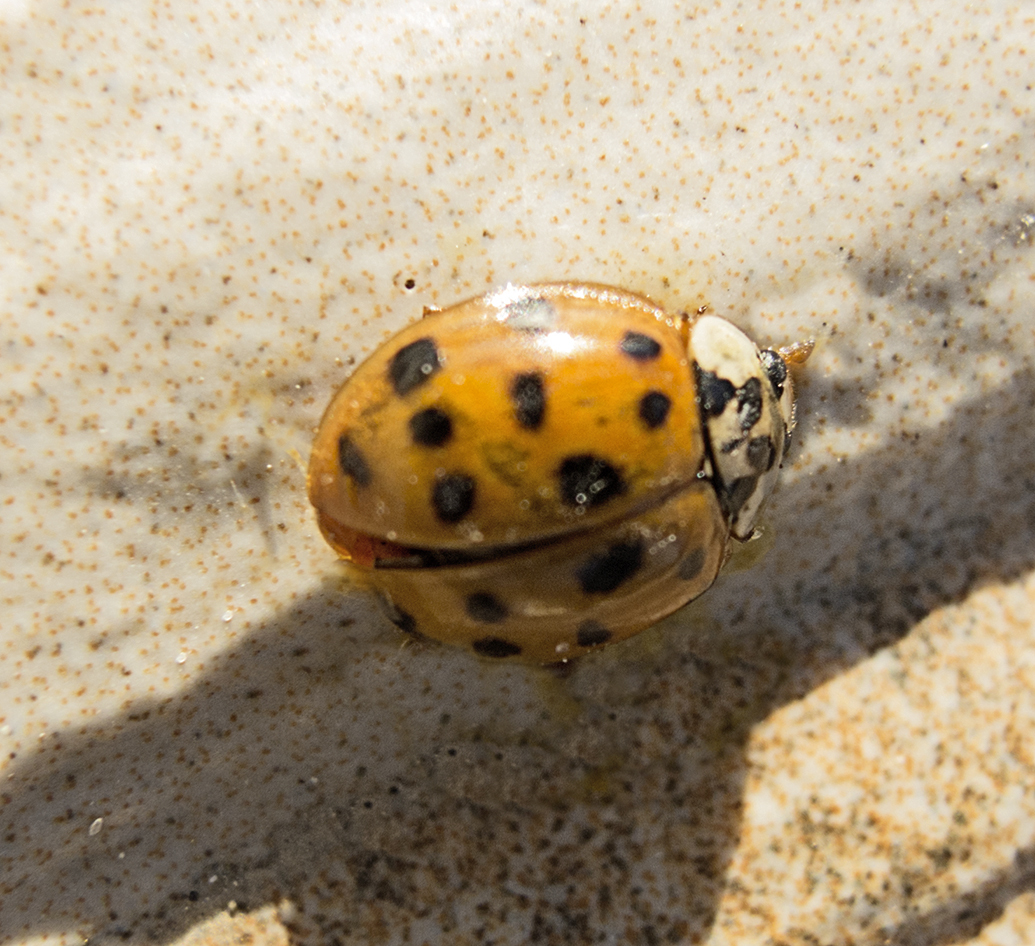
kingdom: Animalia
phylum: Arthropoda
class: Insecta
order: Coleoptera
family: Coccinellidae
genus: Harmonia
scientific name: Harmonia axyridis
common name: Harlequin ladybird
